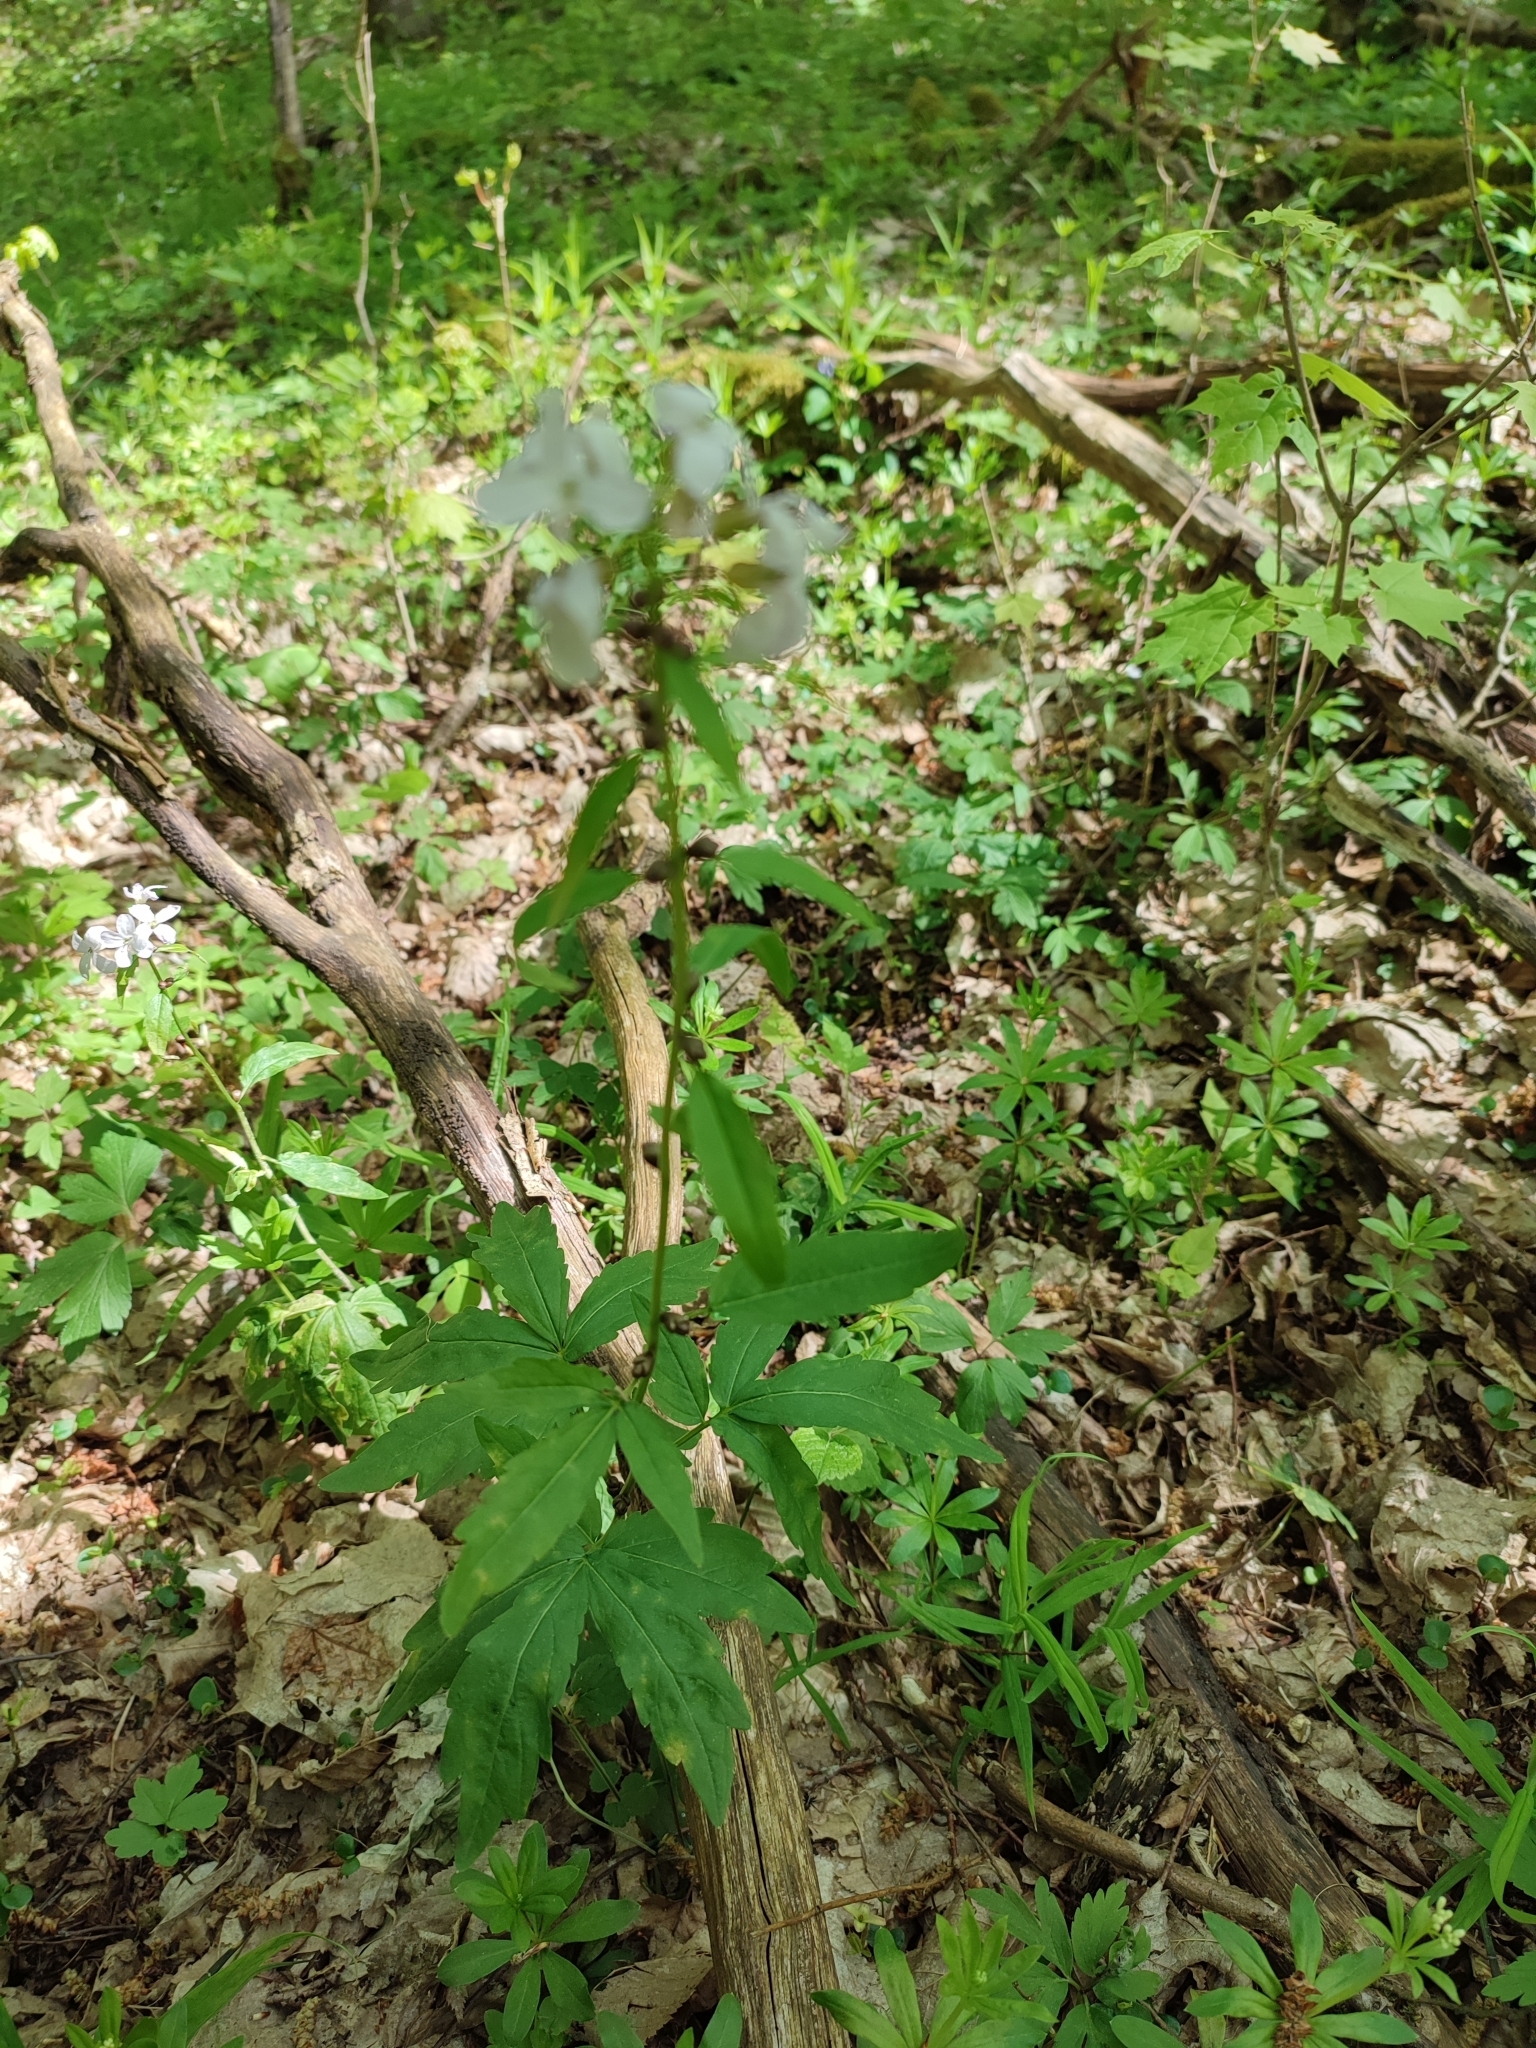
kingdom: Plantae
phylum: Tracheophyta
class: Magnoliopsida
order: Brassicales
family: Brassicaceae
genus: Cardamine
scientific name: Cardamine bulbifera
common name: Coralroot bittercress
